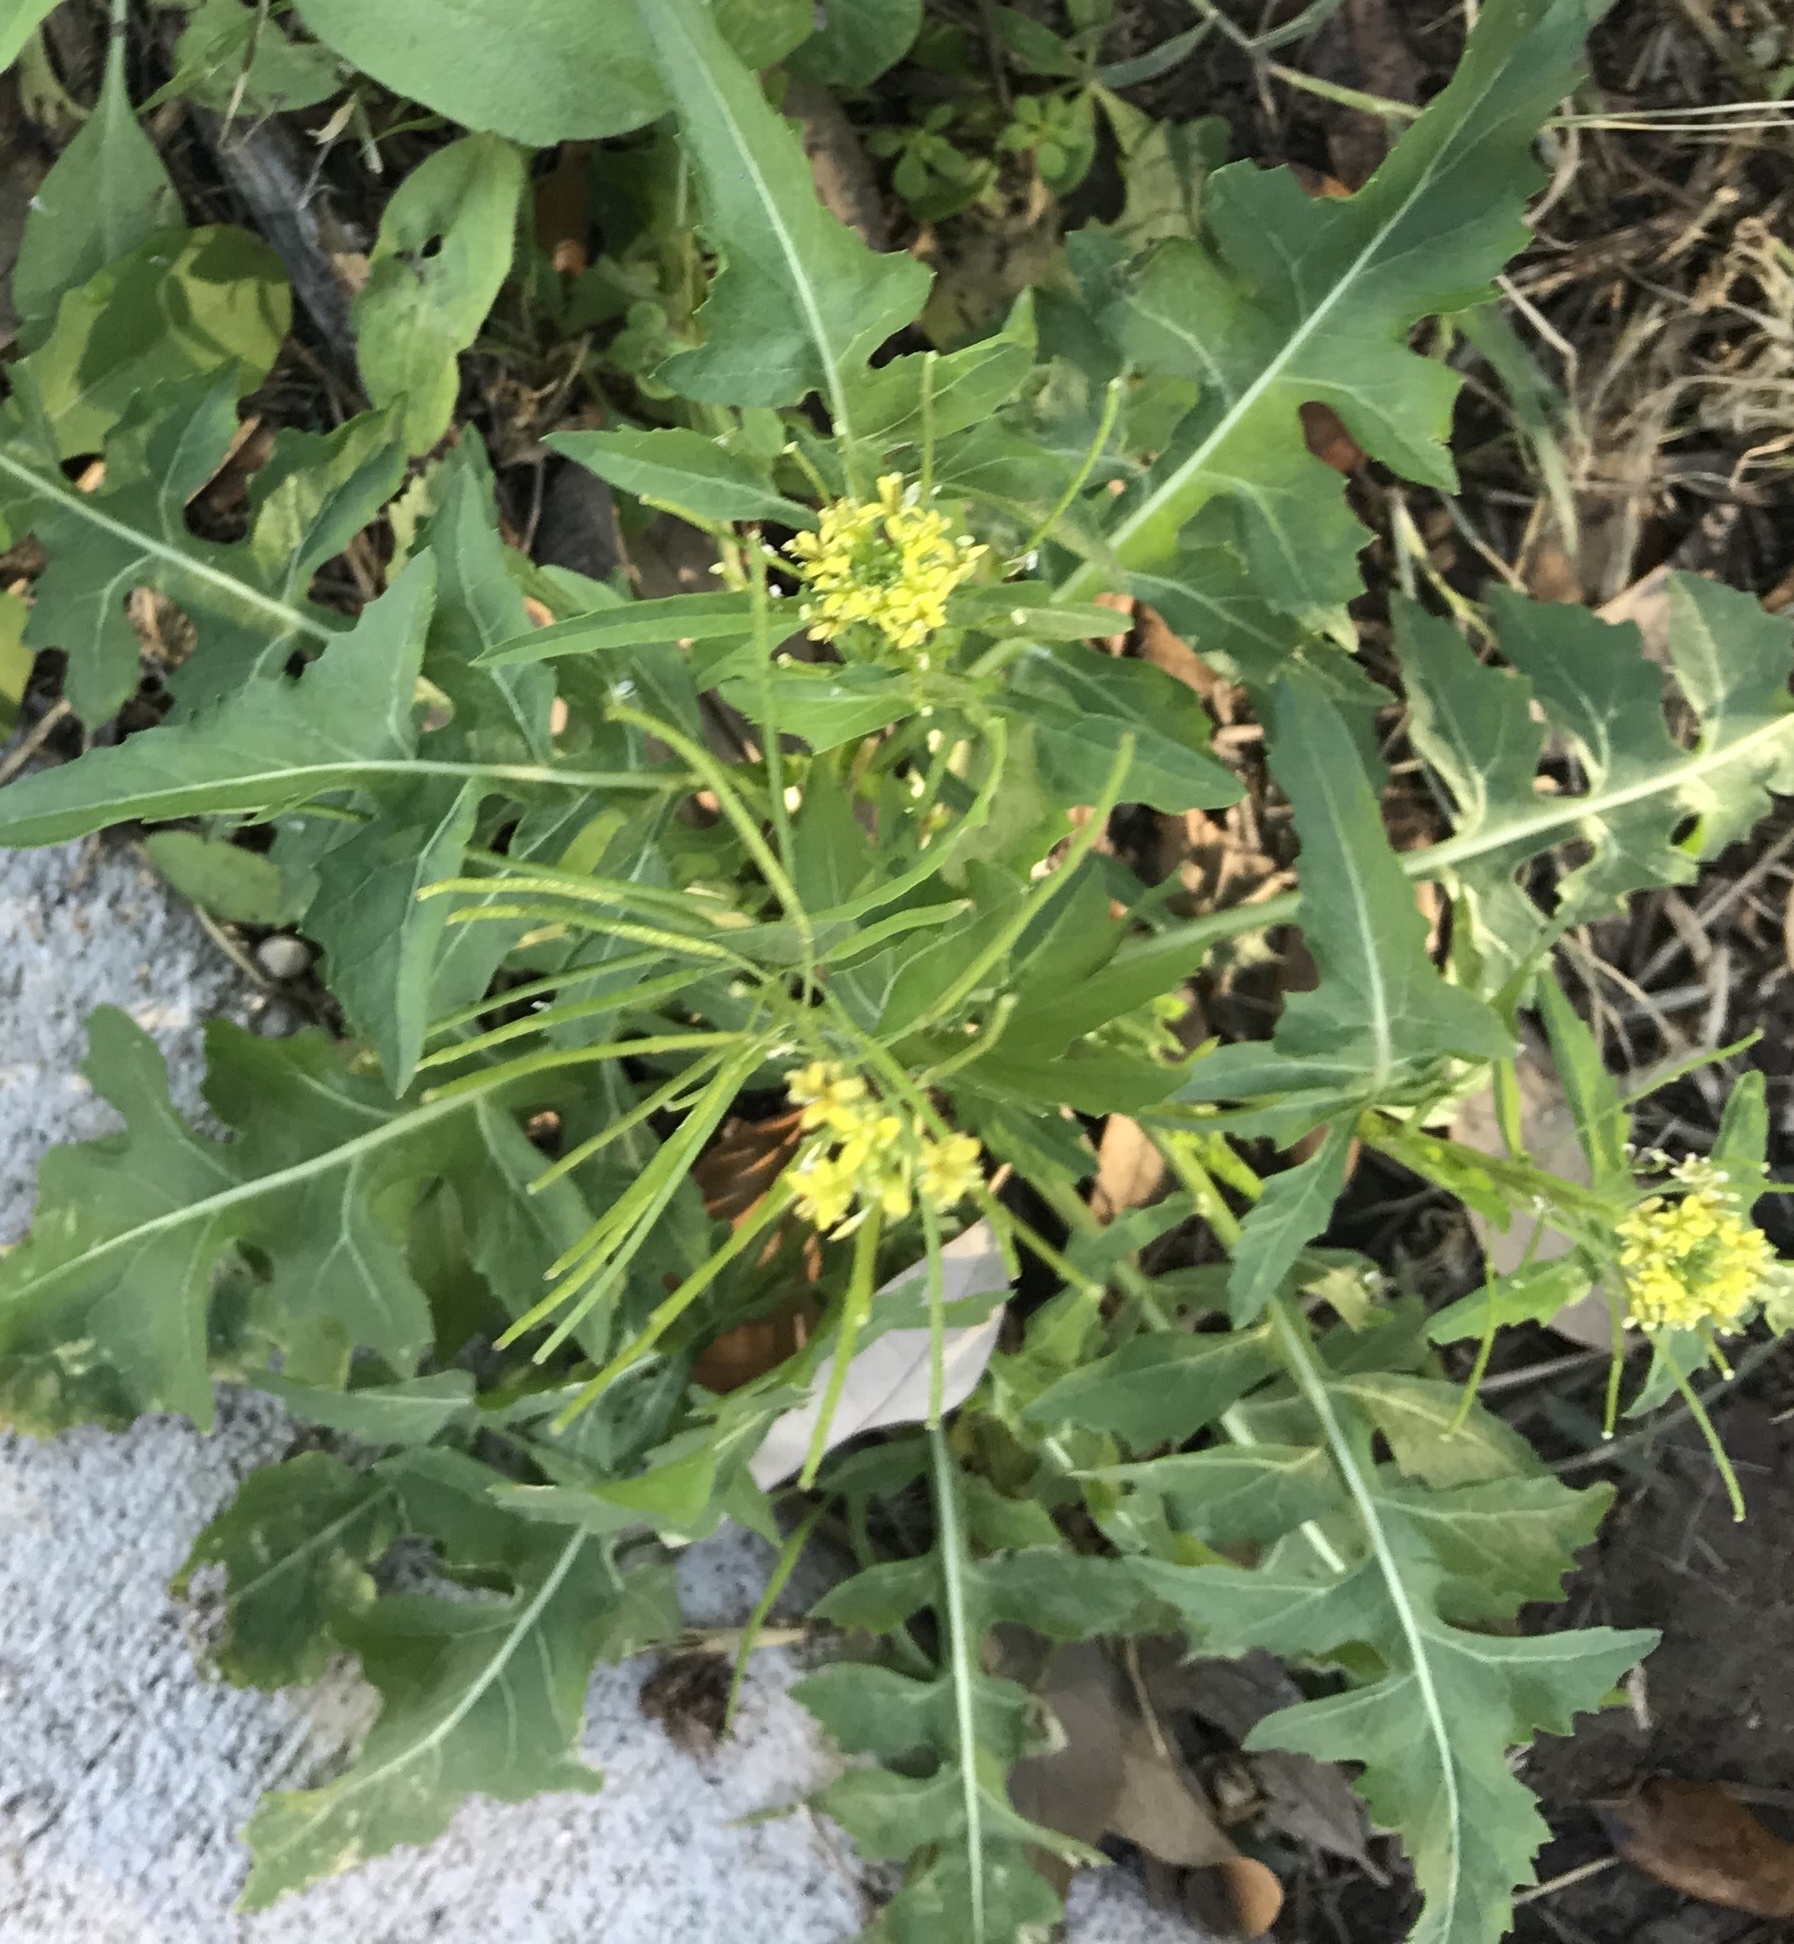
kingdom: Plantae
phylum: Tracheophyta
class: Magnoliopsida
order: Brassicales
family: Brassicaceae
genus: Sisymbrium
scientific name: Sisymbrium irio
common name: London rocket
